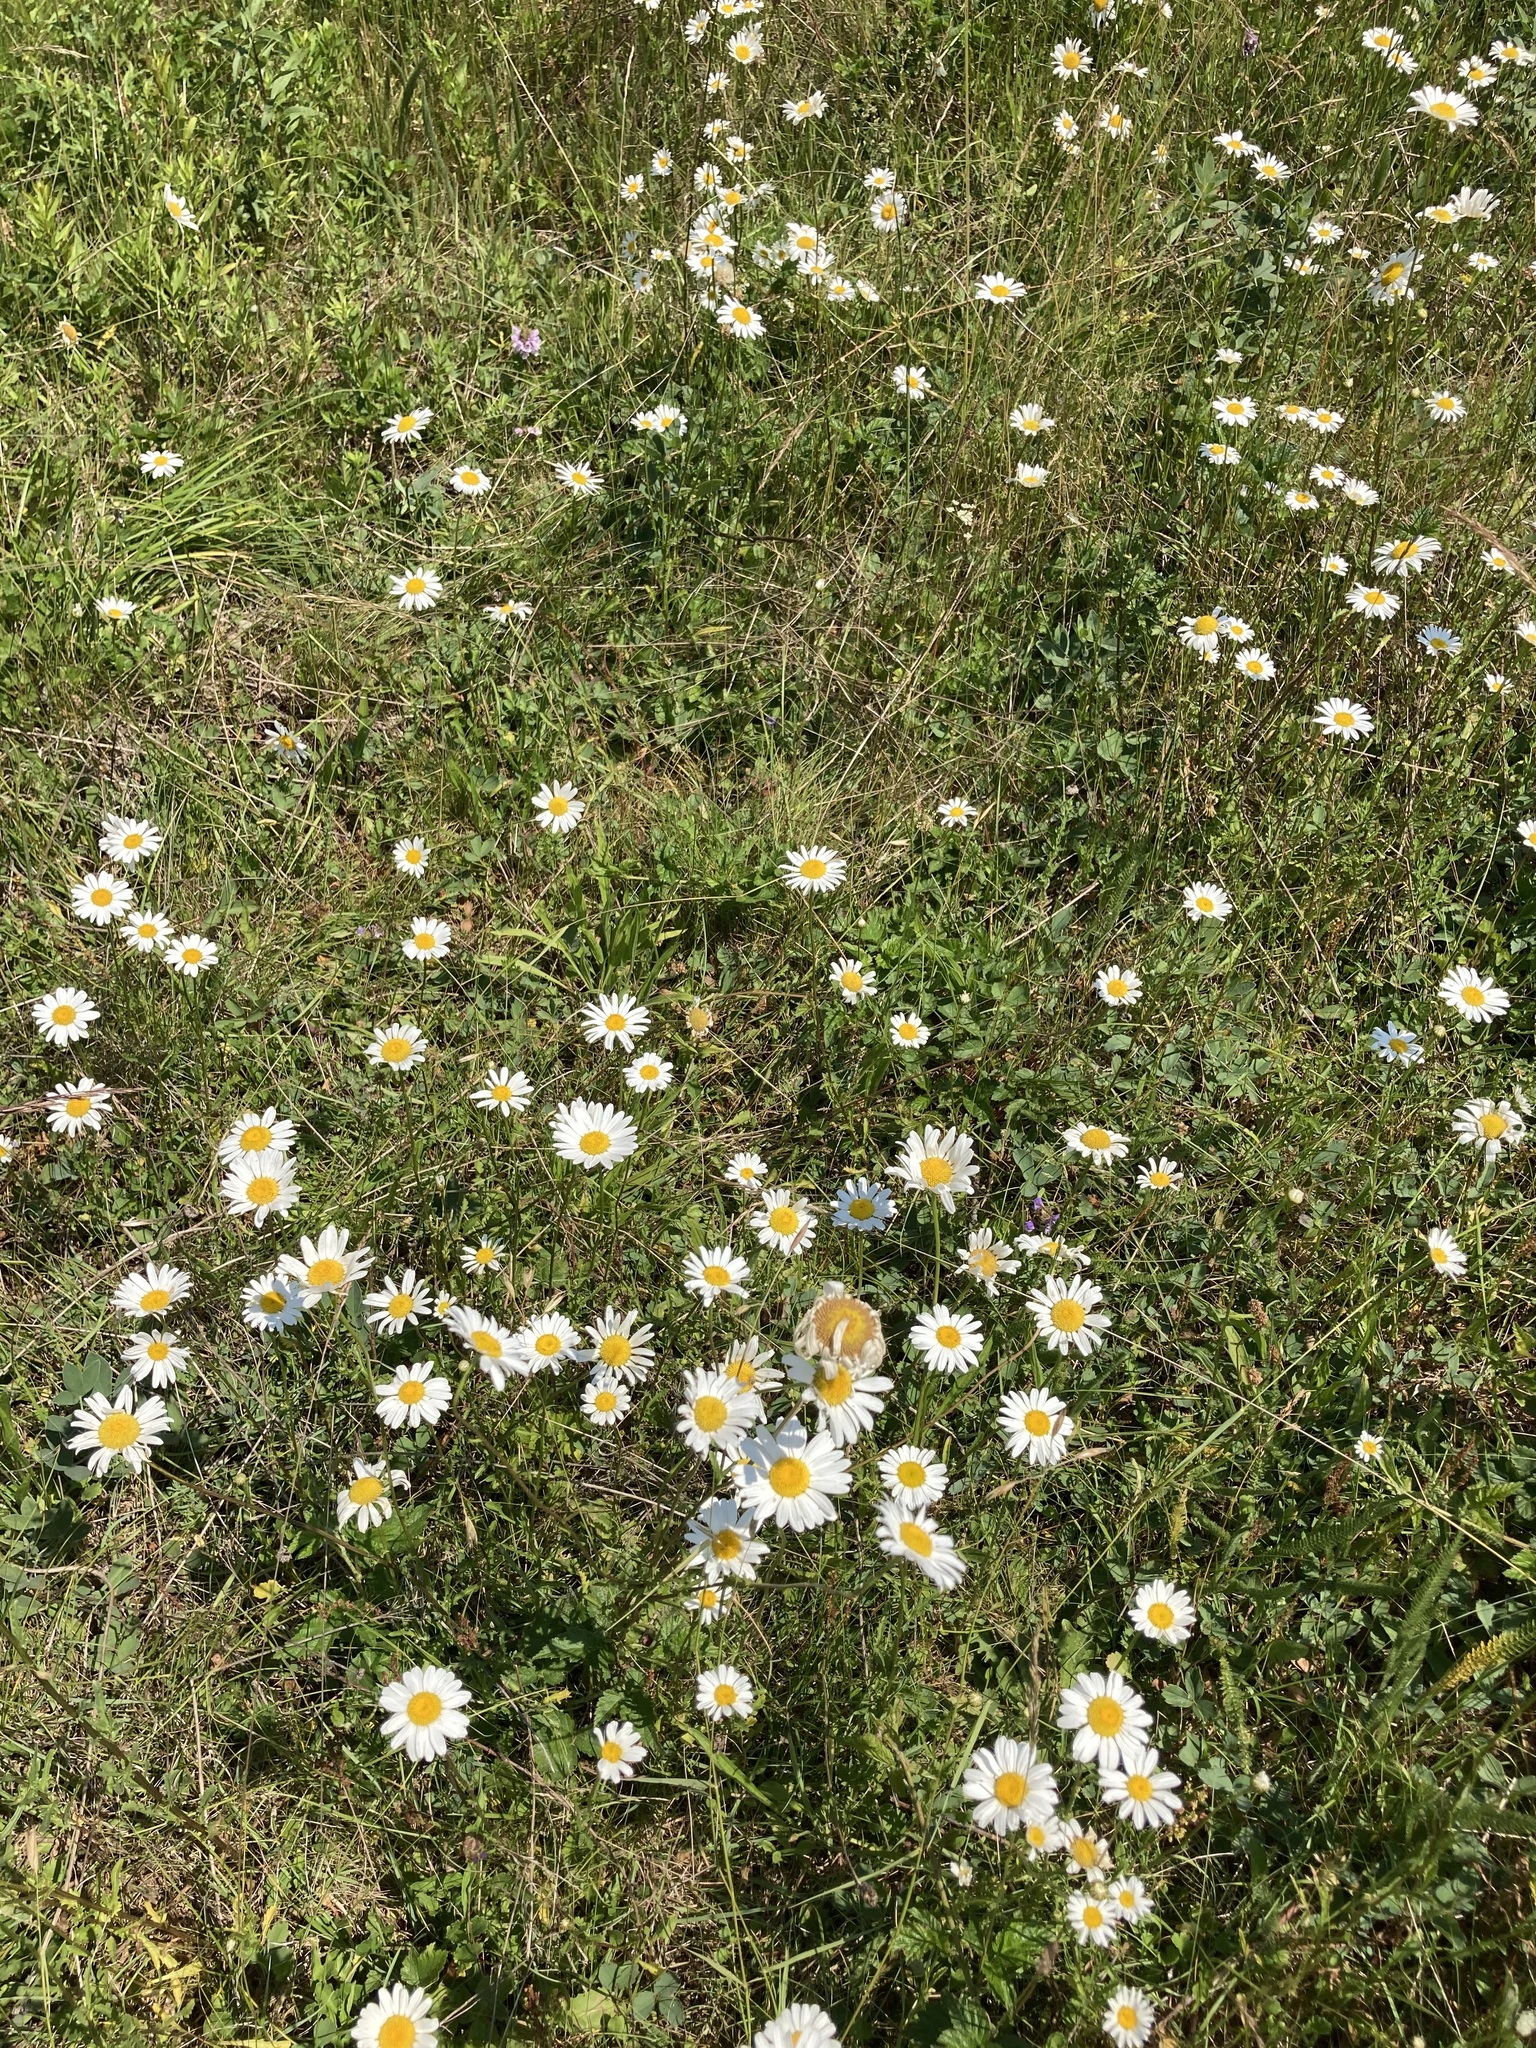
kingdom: Plantae
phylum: Tracheophyta
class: Magnoliopsida
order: Asterales
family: Asteraceae
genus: Leucanthemum
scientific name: Leucanthemum vulgare
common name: Oxeye daisy
